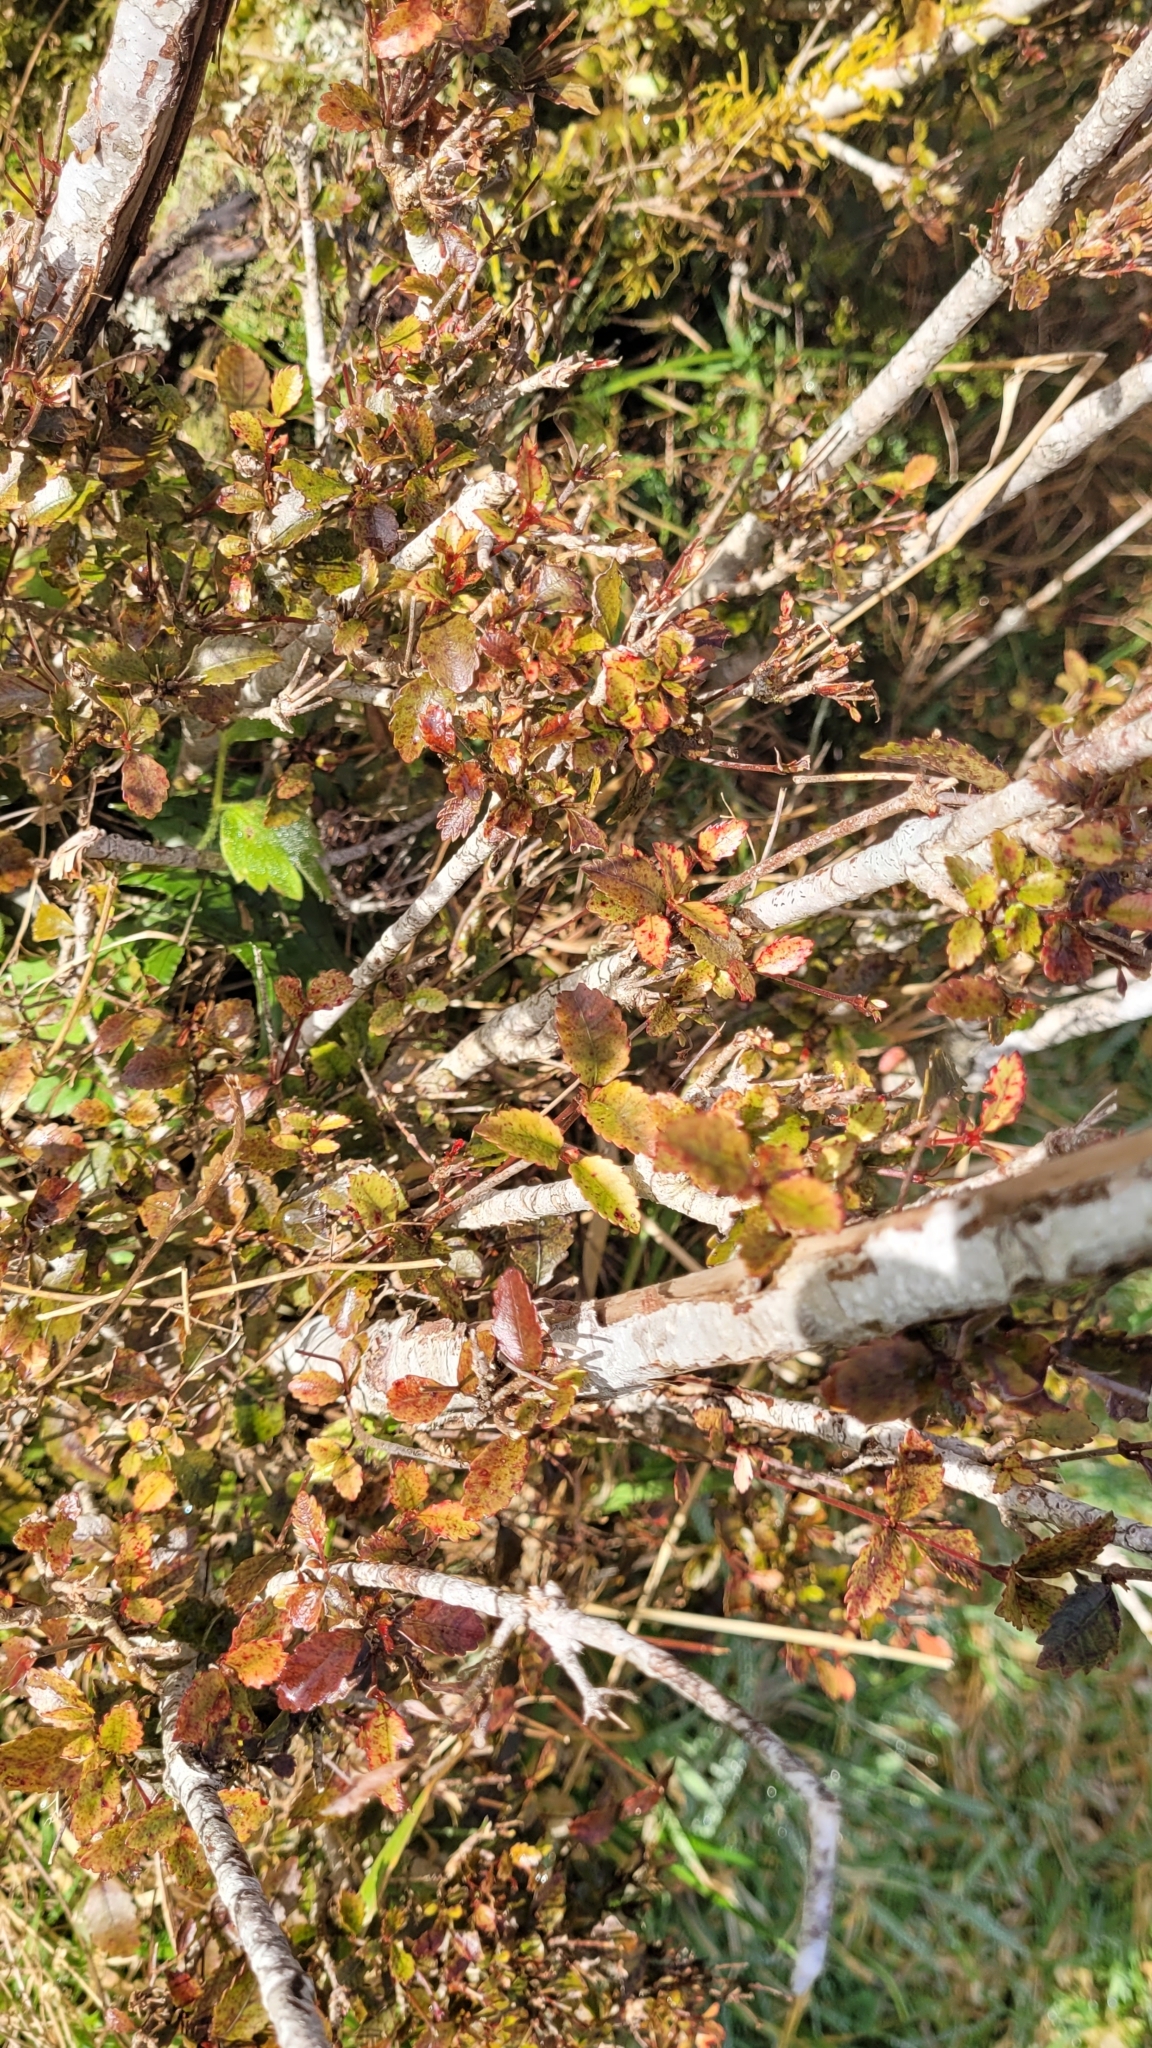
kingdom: Plantae
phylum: Tracheophyta
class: Magnoliopsida
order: Oxalidales
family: Cunoniaceae
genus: Pterophylla
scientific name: Pterophylla racemosa
